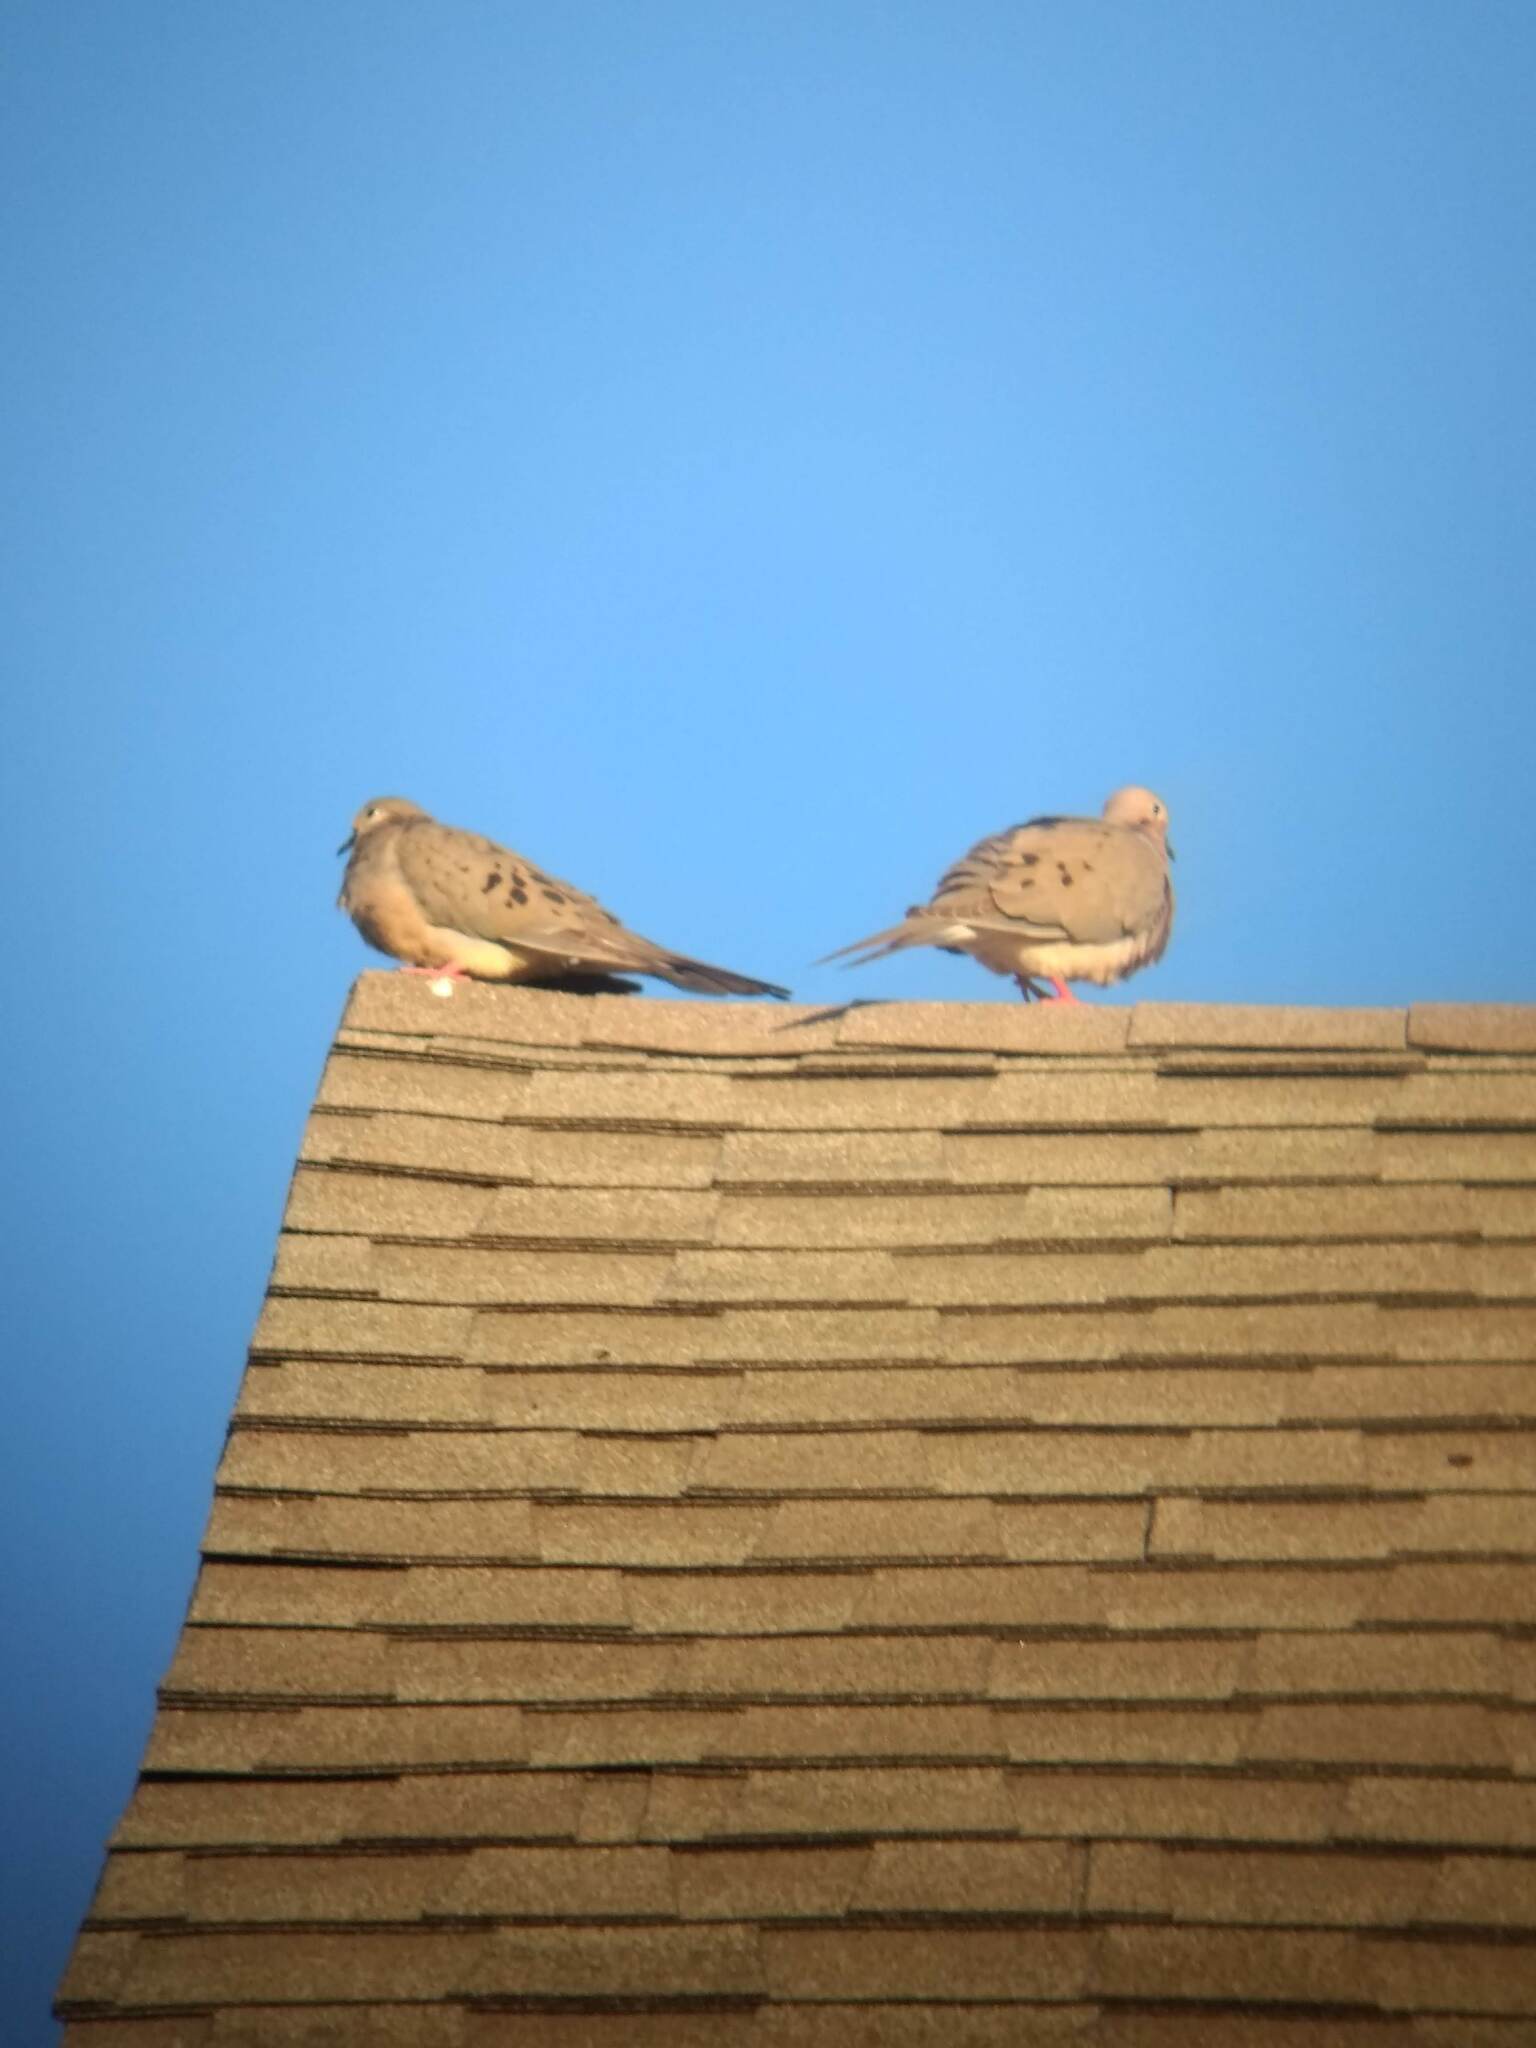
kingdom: Animalia
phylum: Chordata
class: Aves
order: Columbiformes
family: Columbidae
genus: Zenaida
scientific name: Zenaida macroura
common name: Mourning dove
